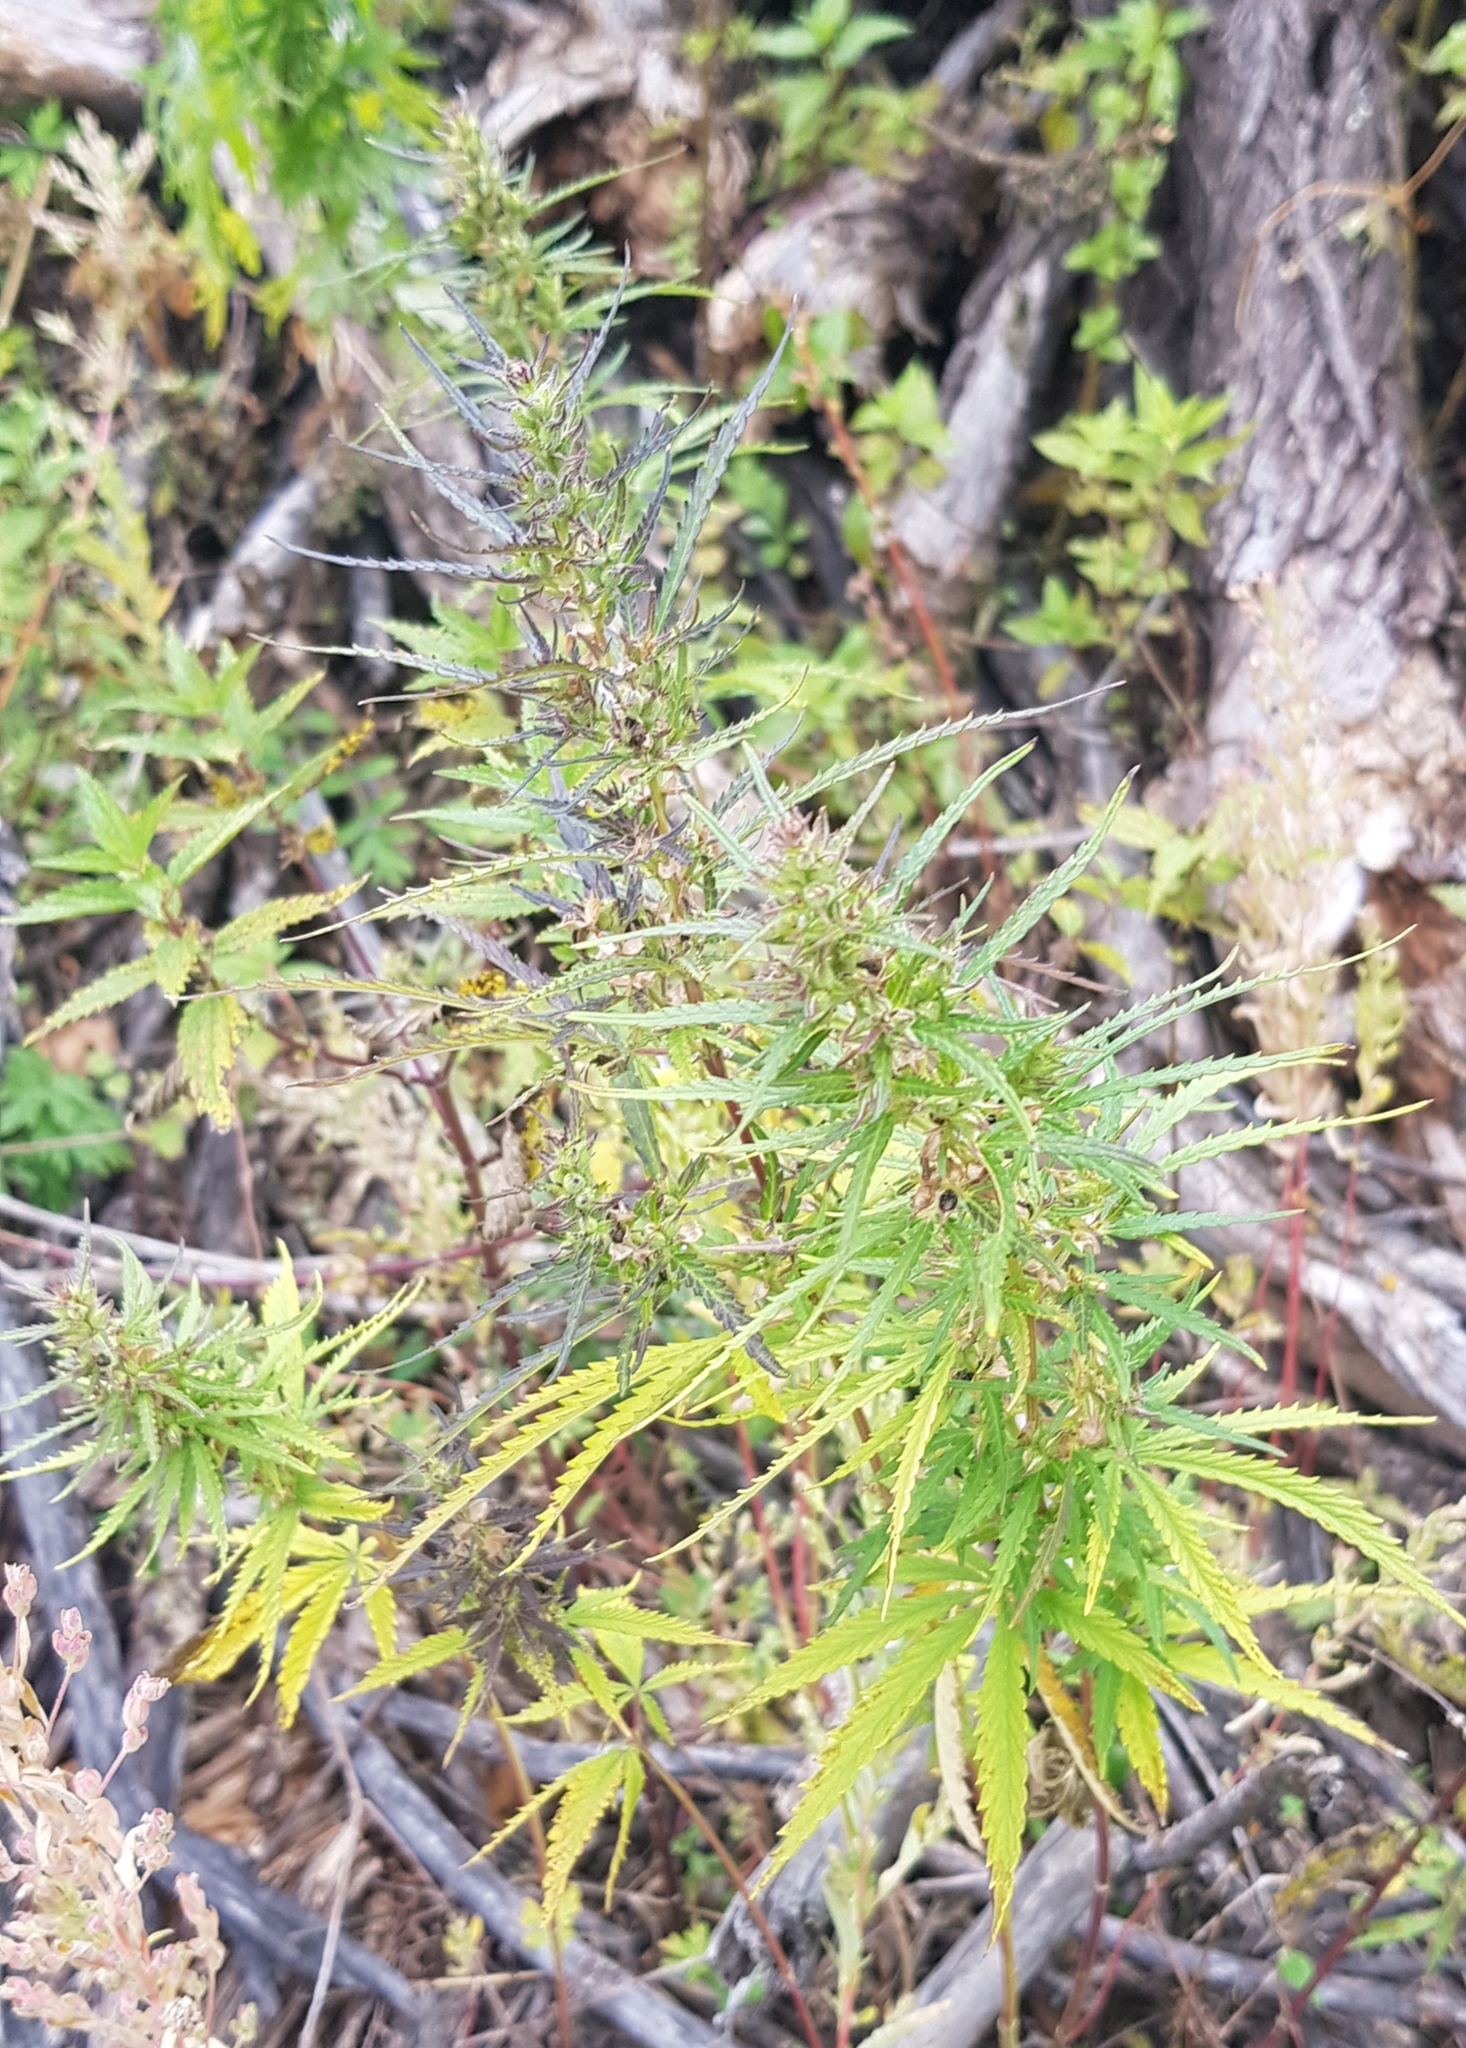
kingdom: Plantae
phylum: Tracheophyta
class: Magnoliopsida
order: Rosales
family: Cannabaceae
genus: Cannabis
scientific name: Cannabis sativa
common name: Hemp
